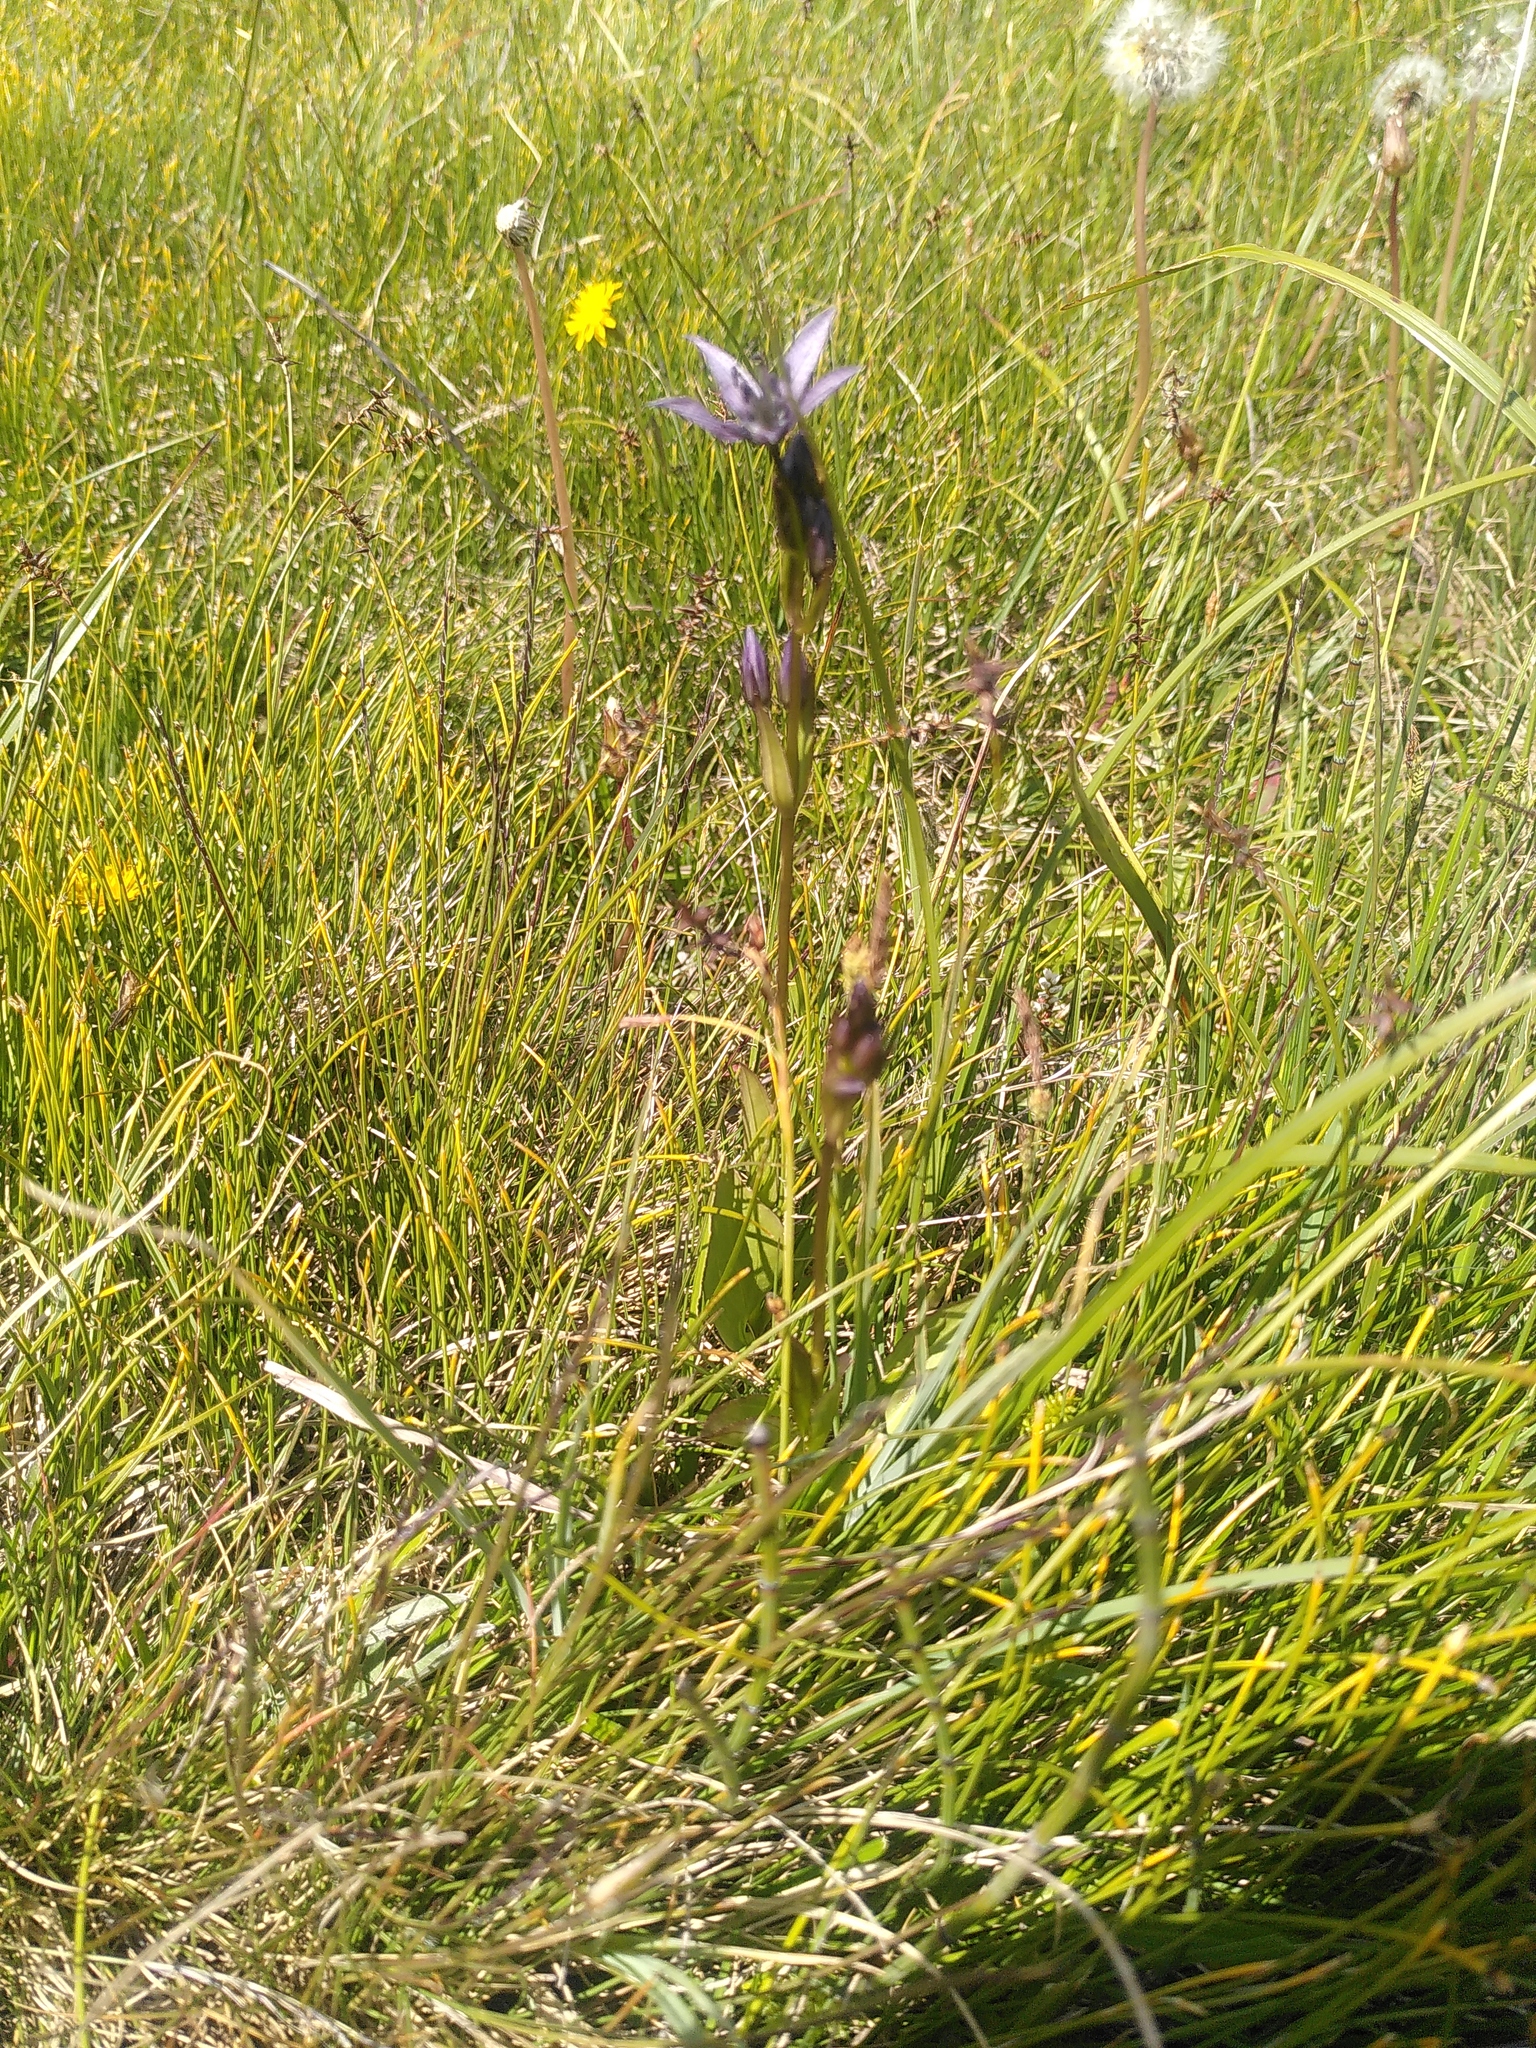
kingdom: Plantae
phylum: Tracheophyta
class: Magnoliopsida
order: Gentianales
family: Gentianaceae
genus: Swertia
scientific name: Swertia perennis
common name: Alpine bog swertia
